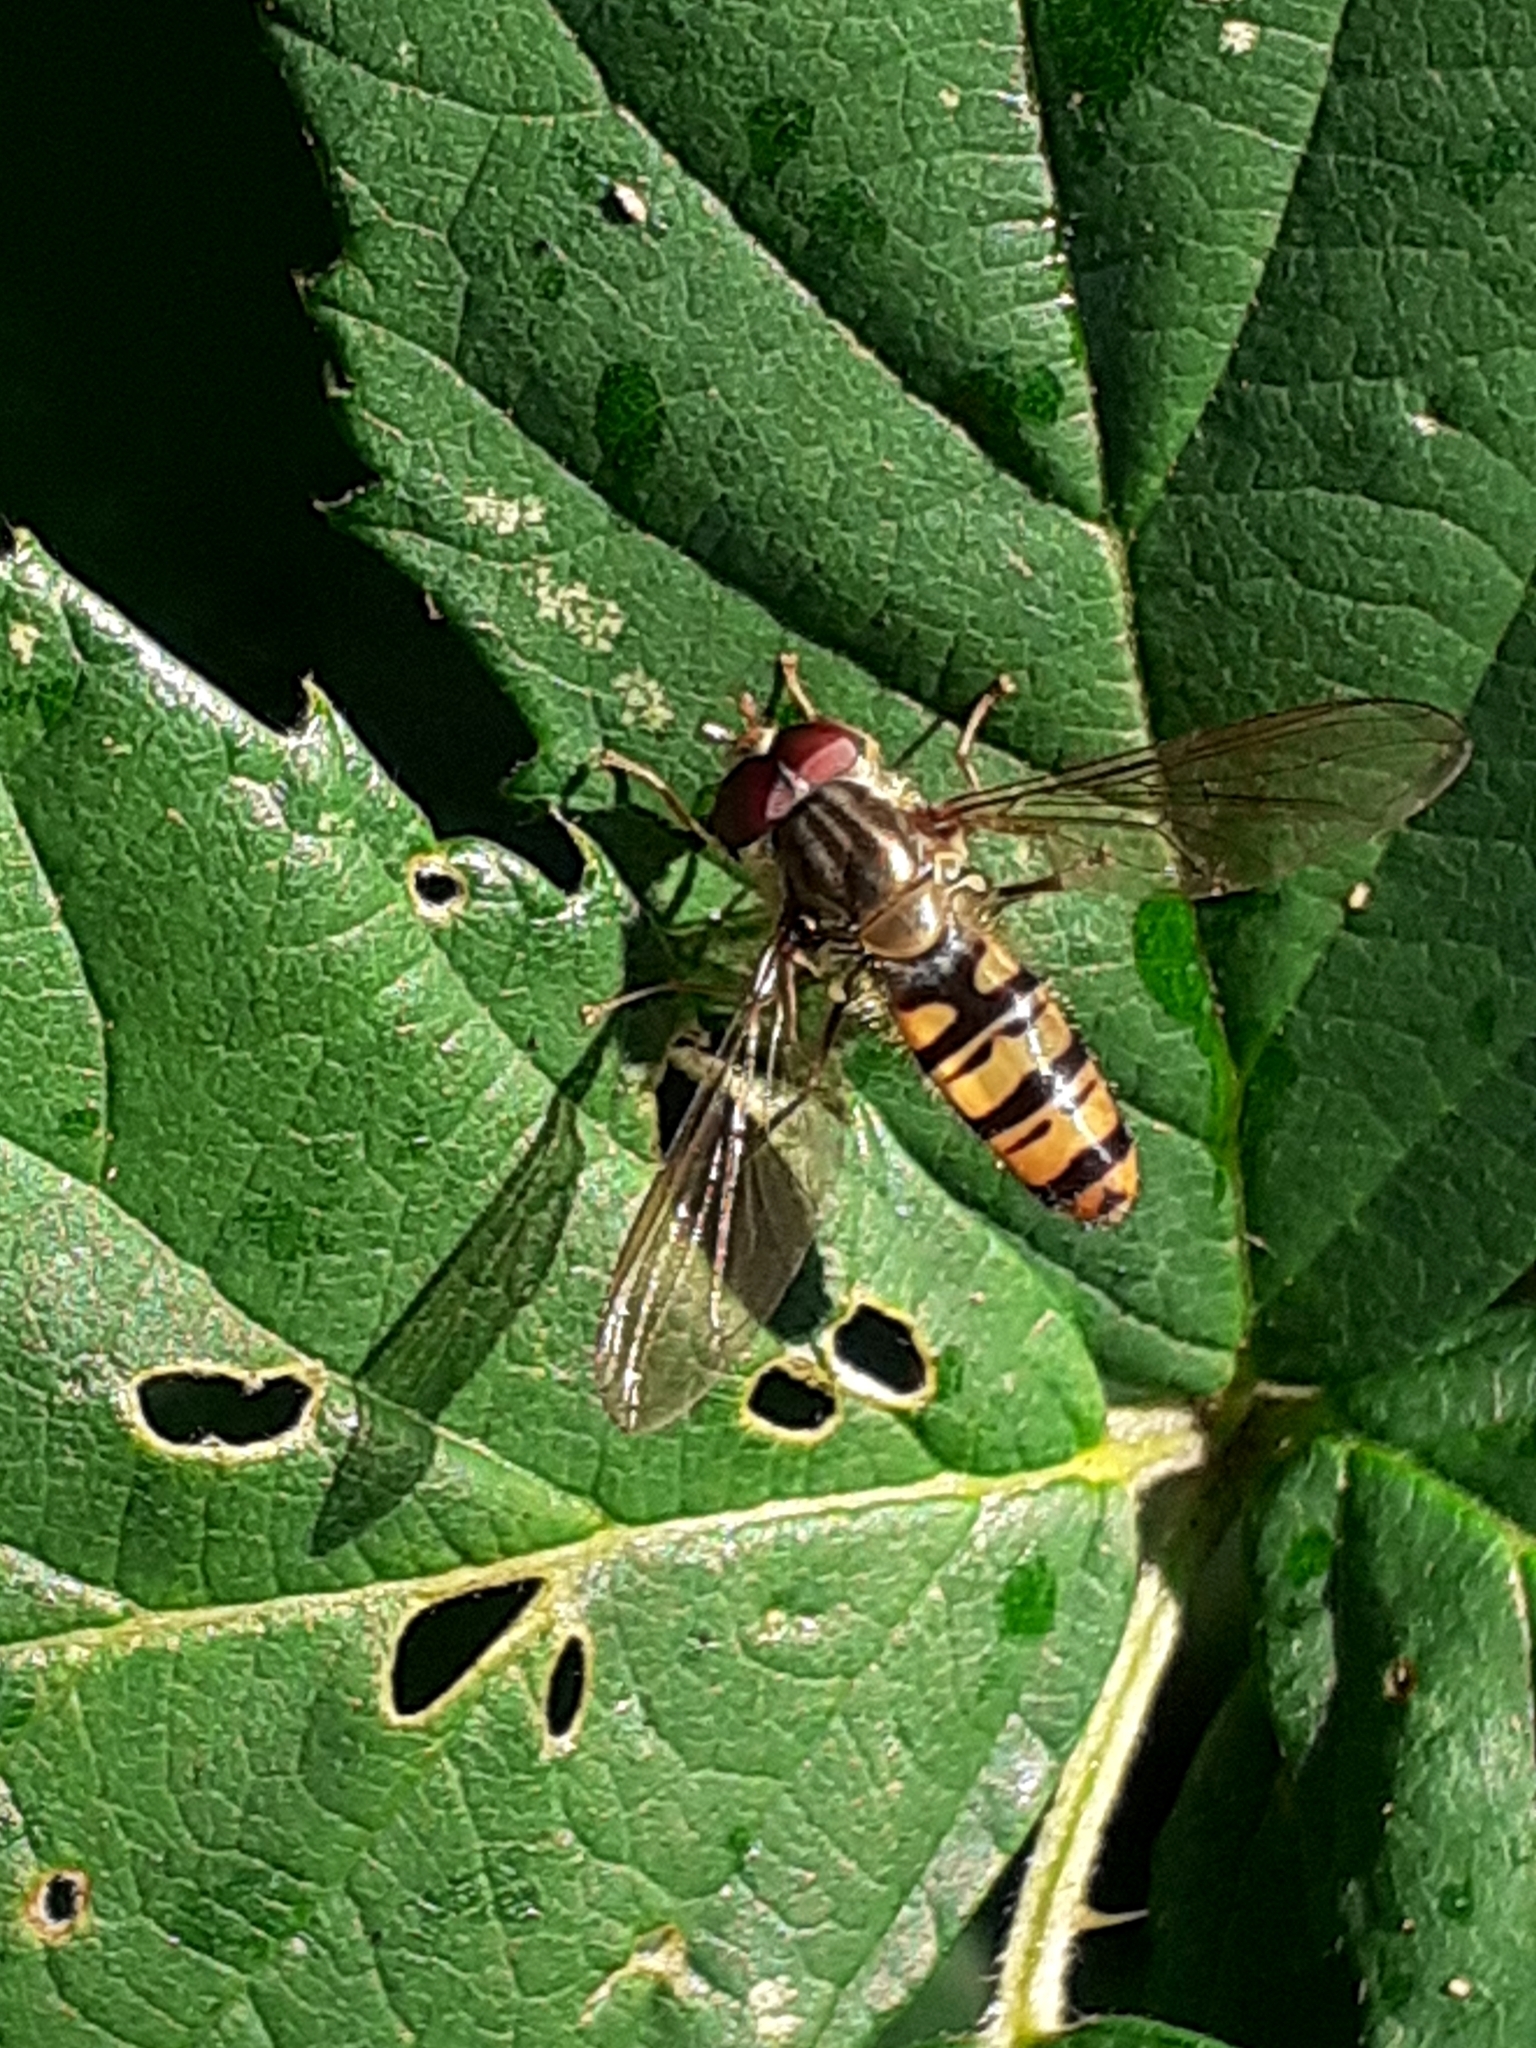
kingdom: Animalia
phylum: Arthropoda
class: Insecta
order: Diptera
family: Syrphidae
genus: Episyrphus
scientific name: Episyrphus balteatus
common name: Marmalade hoverfly
